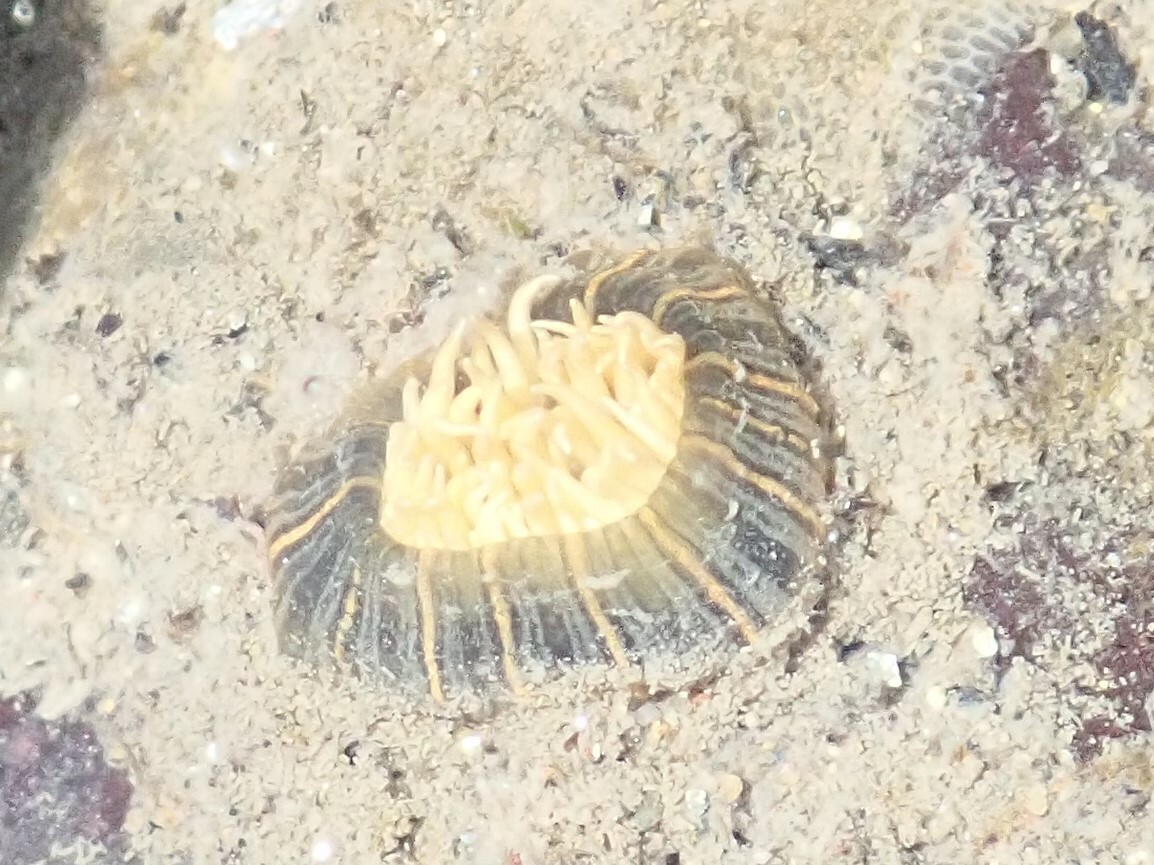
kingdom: Animalia
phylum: Cnidaria
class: Anthozoa
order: Actiniaria
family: Diadumenidae
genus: Diadumene
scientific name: Diadumene lineata
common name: Orange-striped anemone
